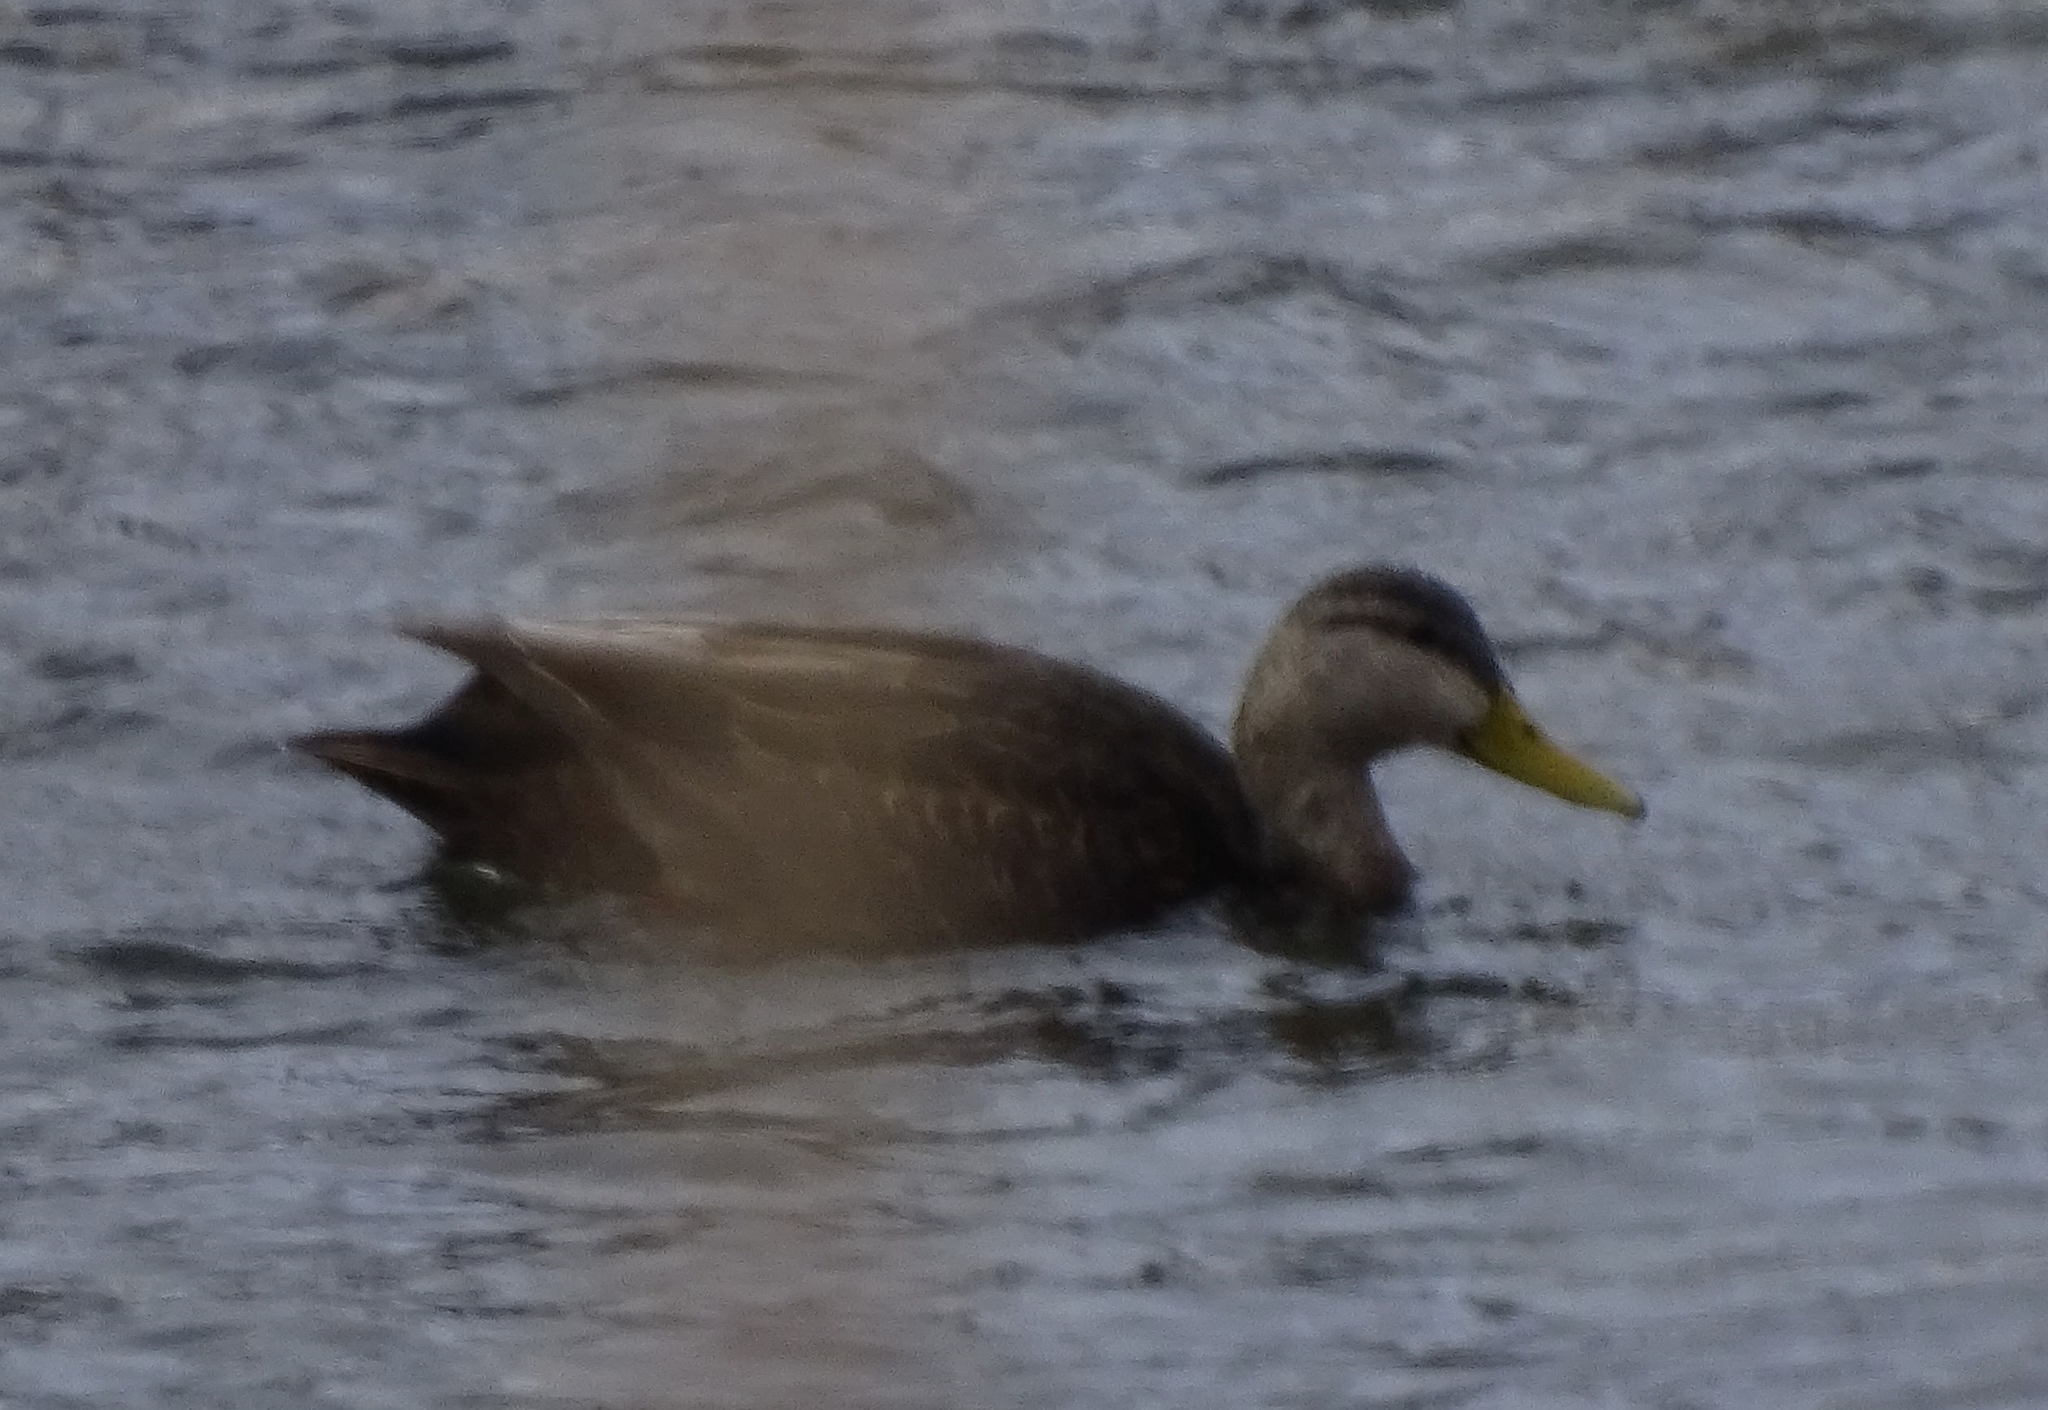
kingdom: Animalia
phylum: Chordata
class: Aves
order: Anseriformes
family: Anatidae
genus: Anas
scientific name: Anas rubripes
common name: American black duck
